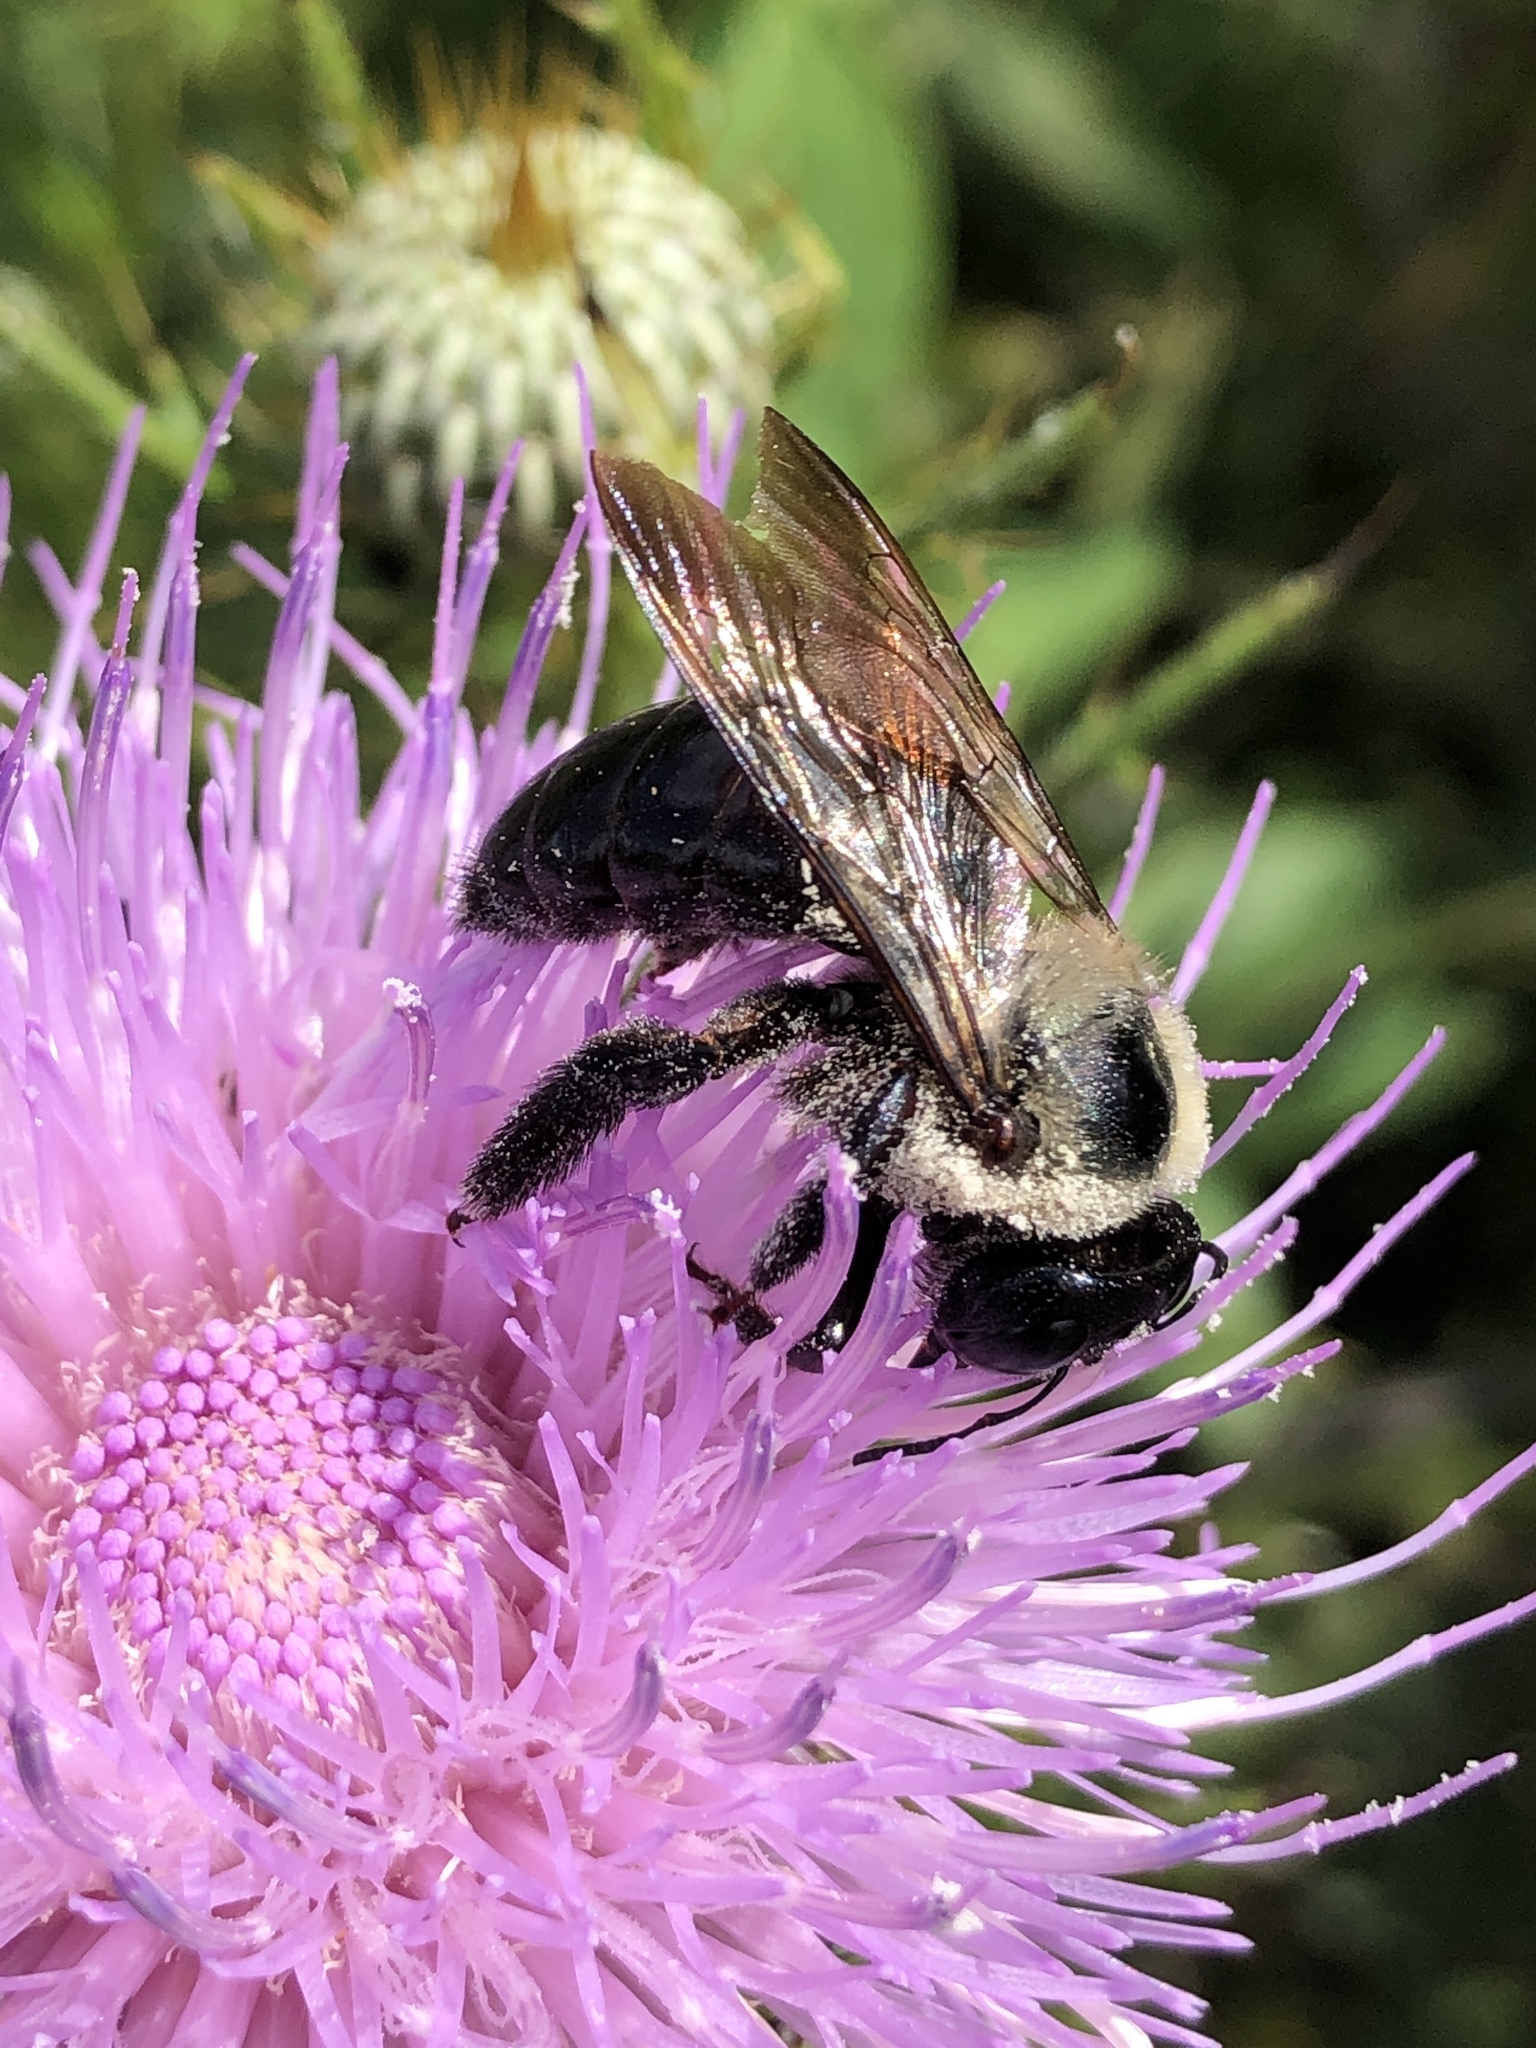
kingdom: Animalia
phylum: Arthropoda
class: Insecta
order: Hymenoptera
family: Apidae
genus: Xylocopa
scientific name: Xylocopa virginica
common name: Carpenter bee
